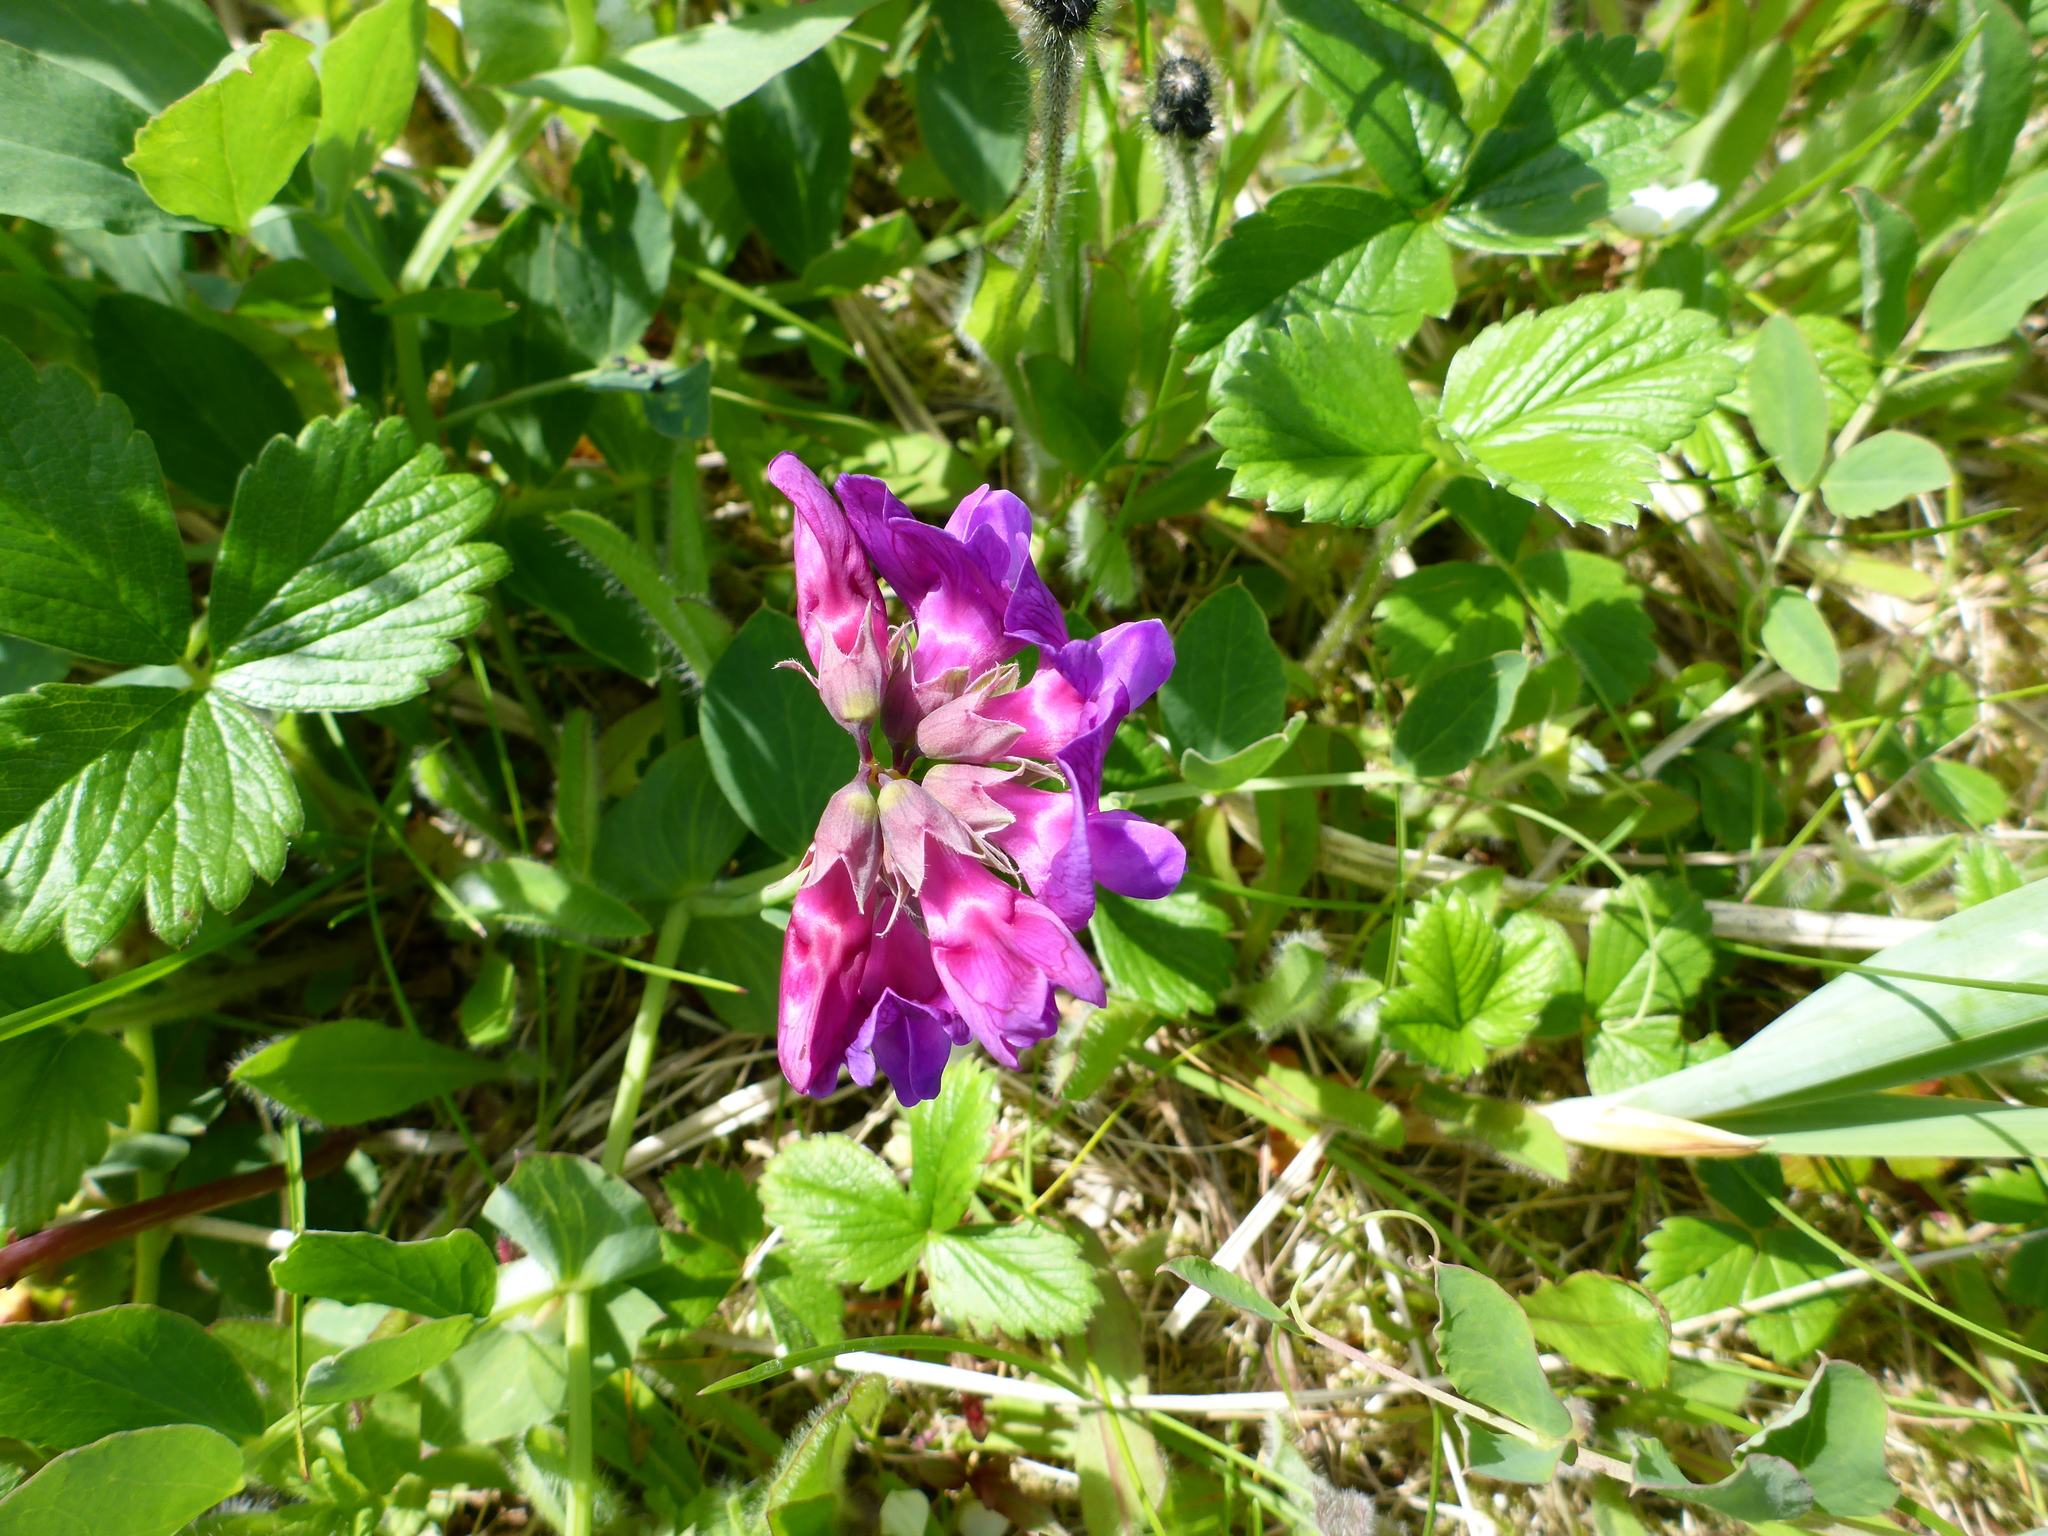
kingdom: Plantae
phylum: Tracheophyta
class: Magnoliopsida
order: Fabales
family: Fabaceae
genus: Lathyrus
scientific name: Lathyrus japonicus
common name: Sea pea
